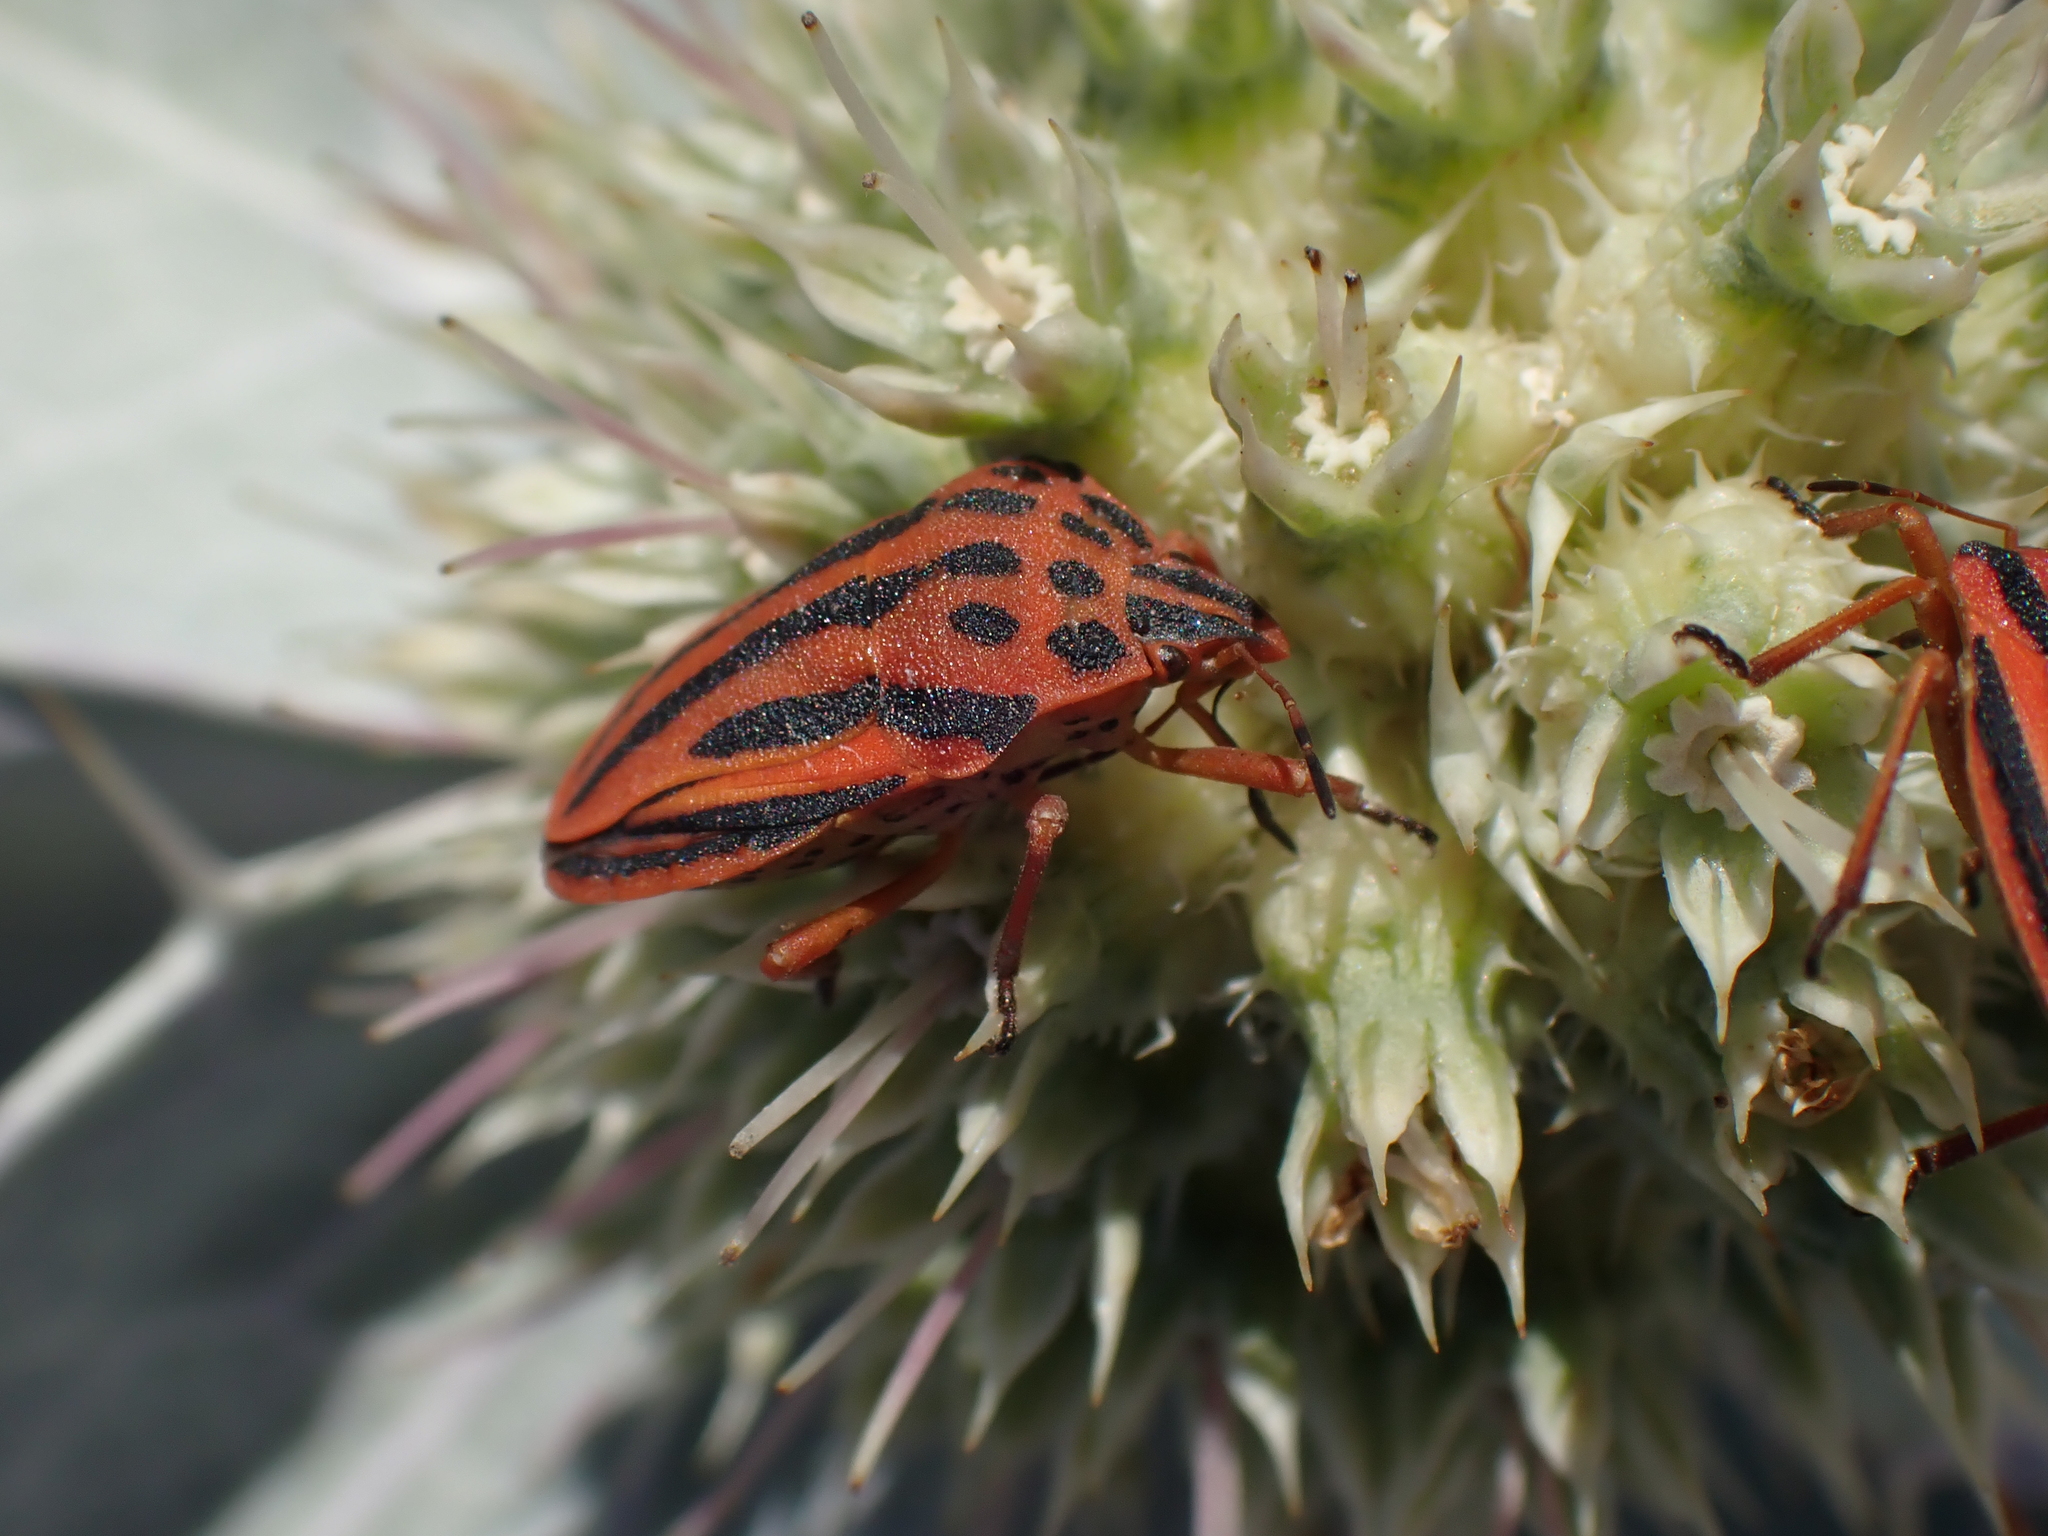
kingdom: Animalia
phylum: Arthropoda
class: Insecta
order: Hemiptera
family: Pentatomidae
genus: Graphosoma
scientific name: Graphosoma semipunctatum
